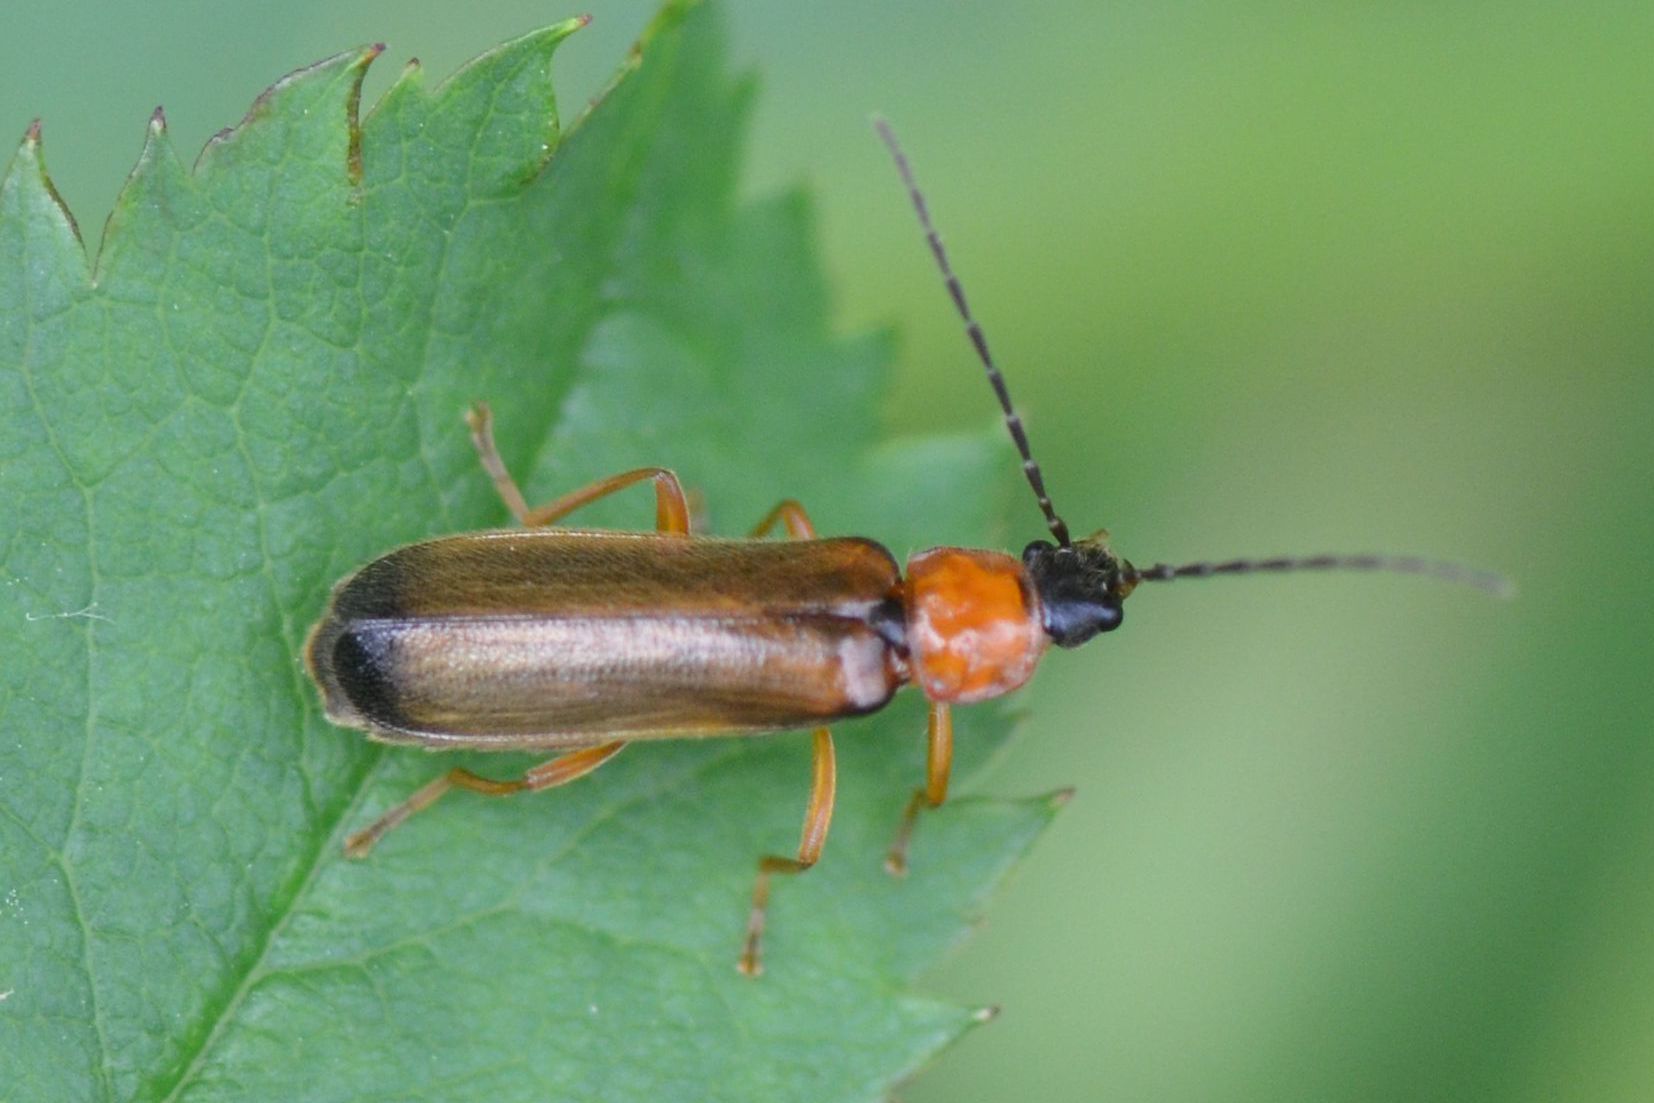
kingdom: Animalia
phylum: Arthropoda
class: Insecta
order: Coleoptera
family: Cantharidae
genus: Rhagonycha
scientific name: Rhagonycha lutea
